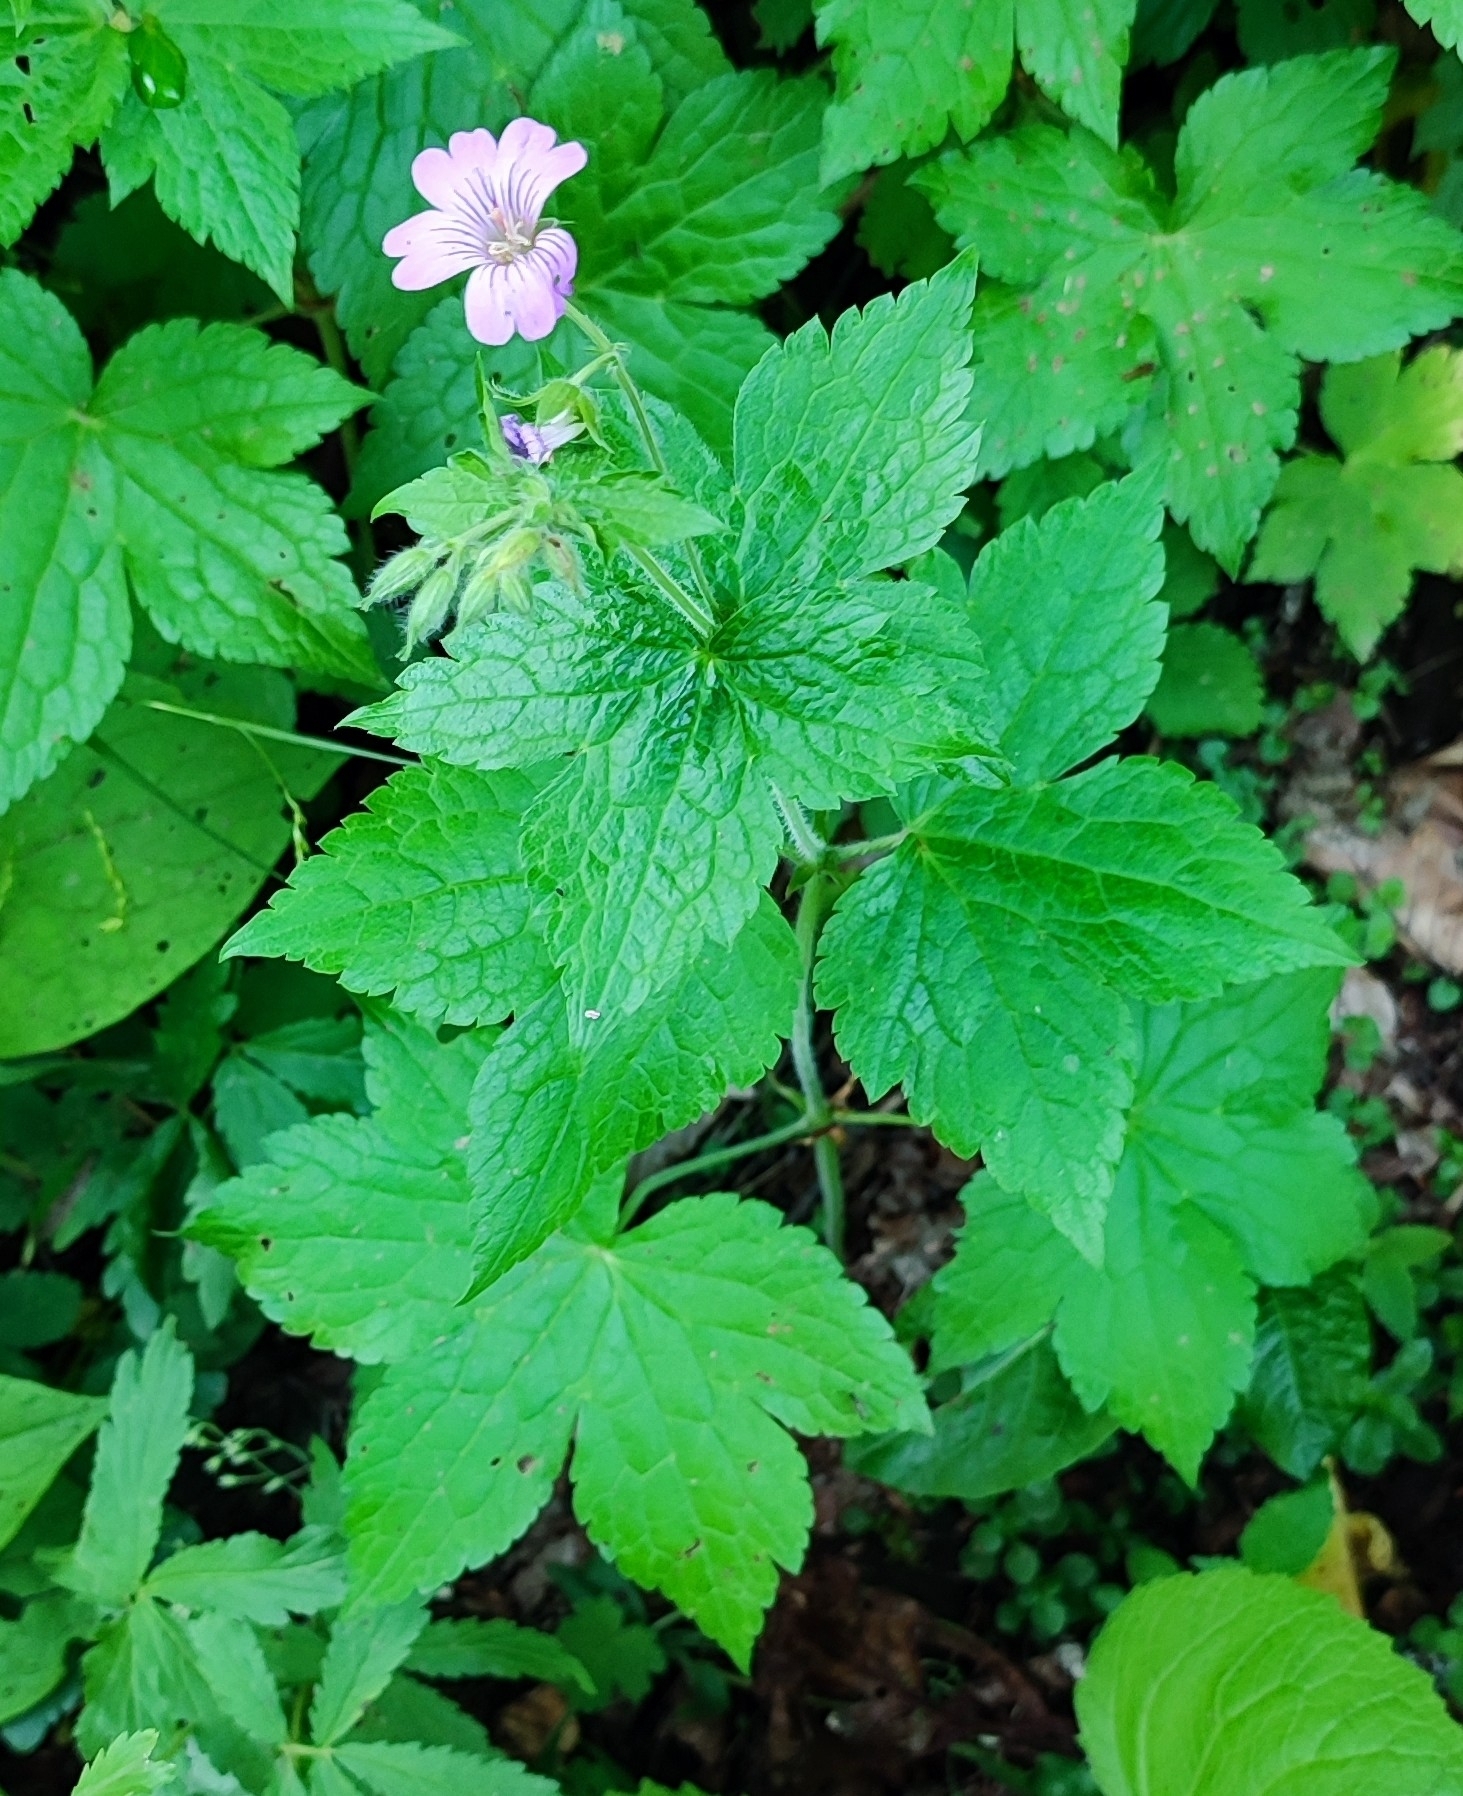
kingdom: Plantae
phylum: Tracheophyta
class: Magnoliopsida
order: Geraniales
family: Geraniaceae
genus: Geranium
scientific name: Geranium gracile
